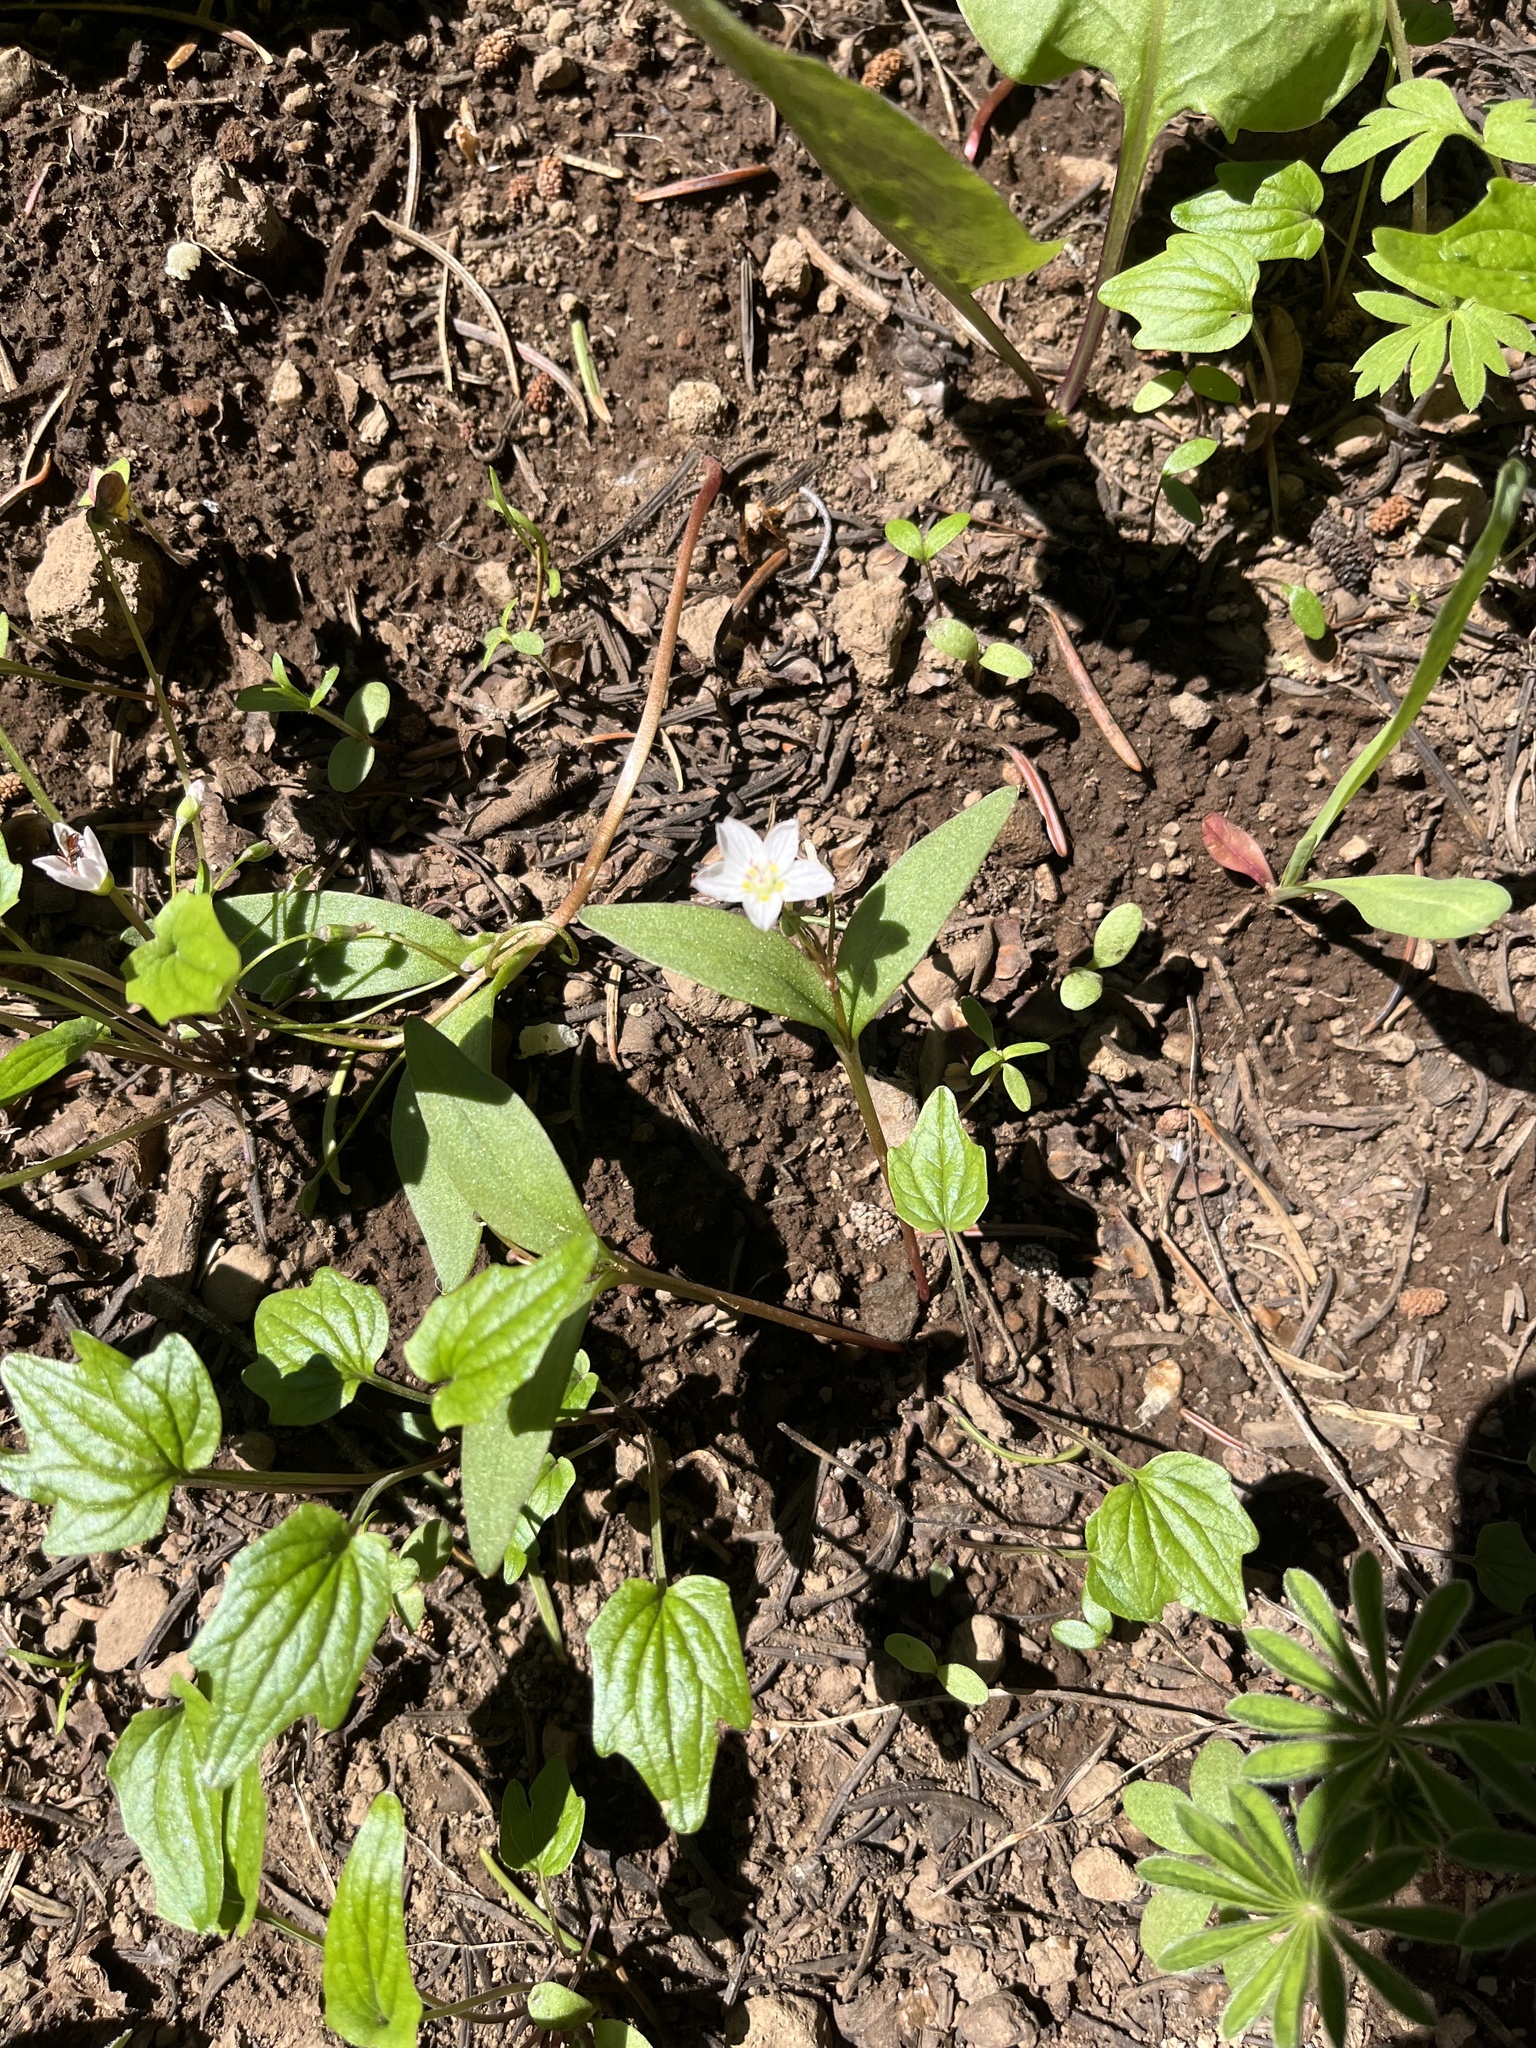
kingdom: Plantae
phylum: Tracheophyta
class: Magnoliopsida
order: Caryophyllales
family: Montiaceae
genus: Claytonia
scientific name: Claytonia lanceolata
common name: Western spring-beauty
